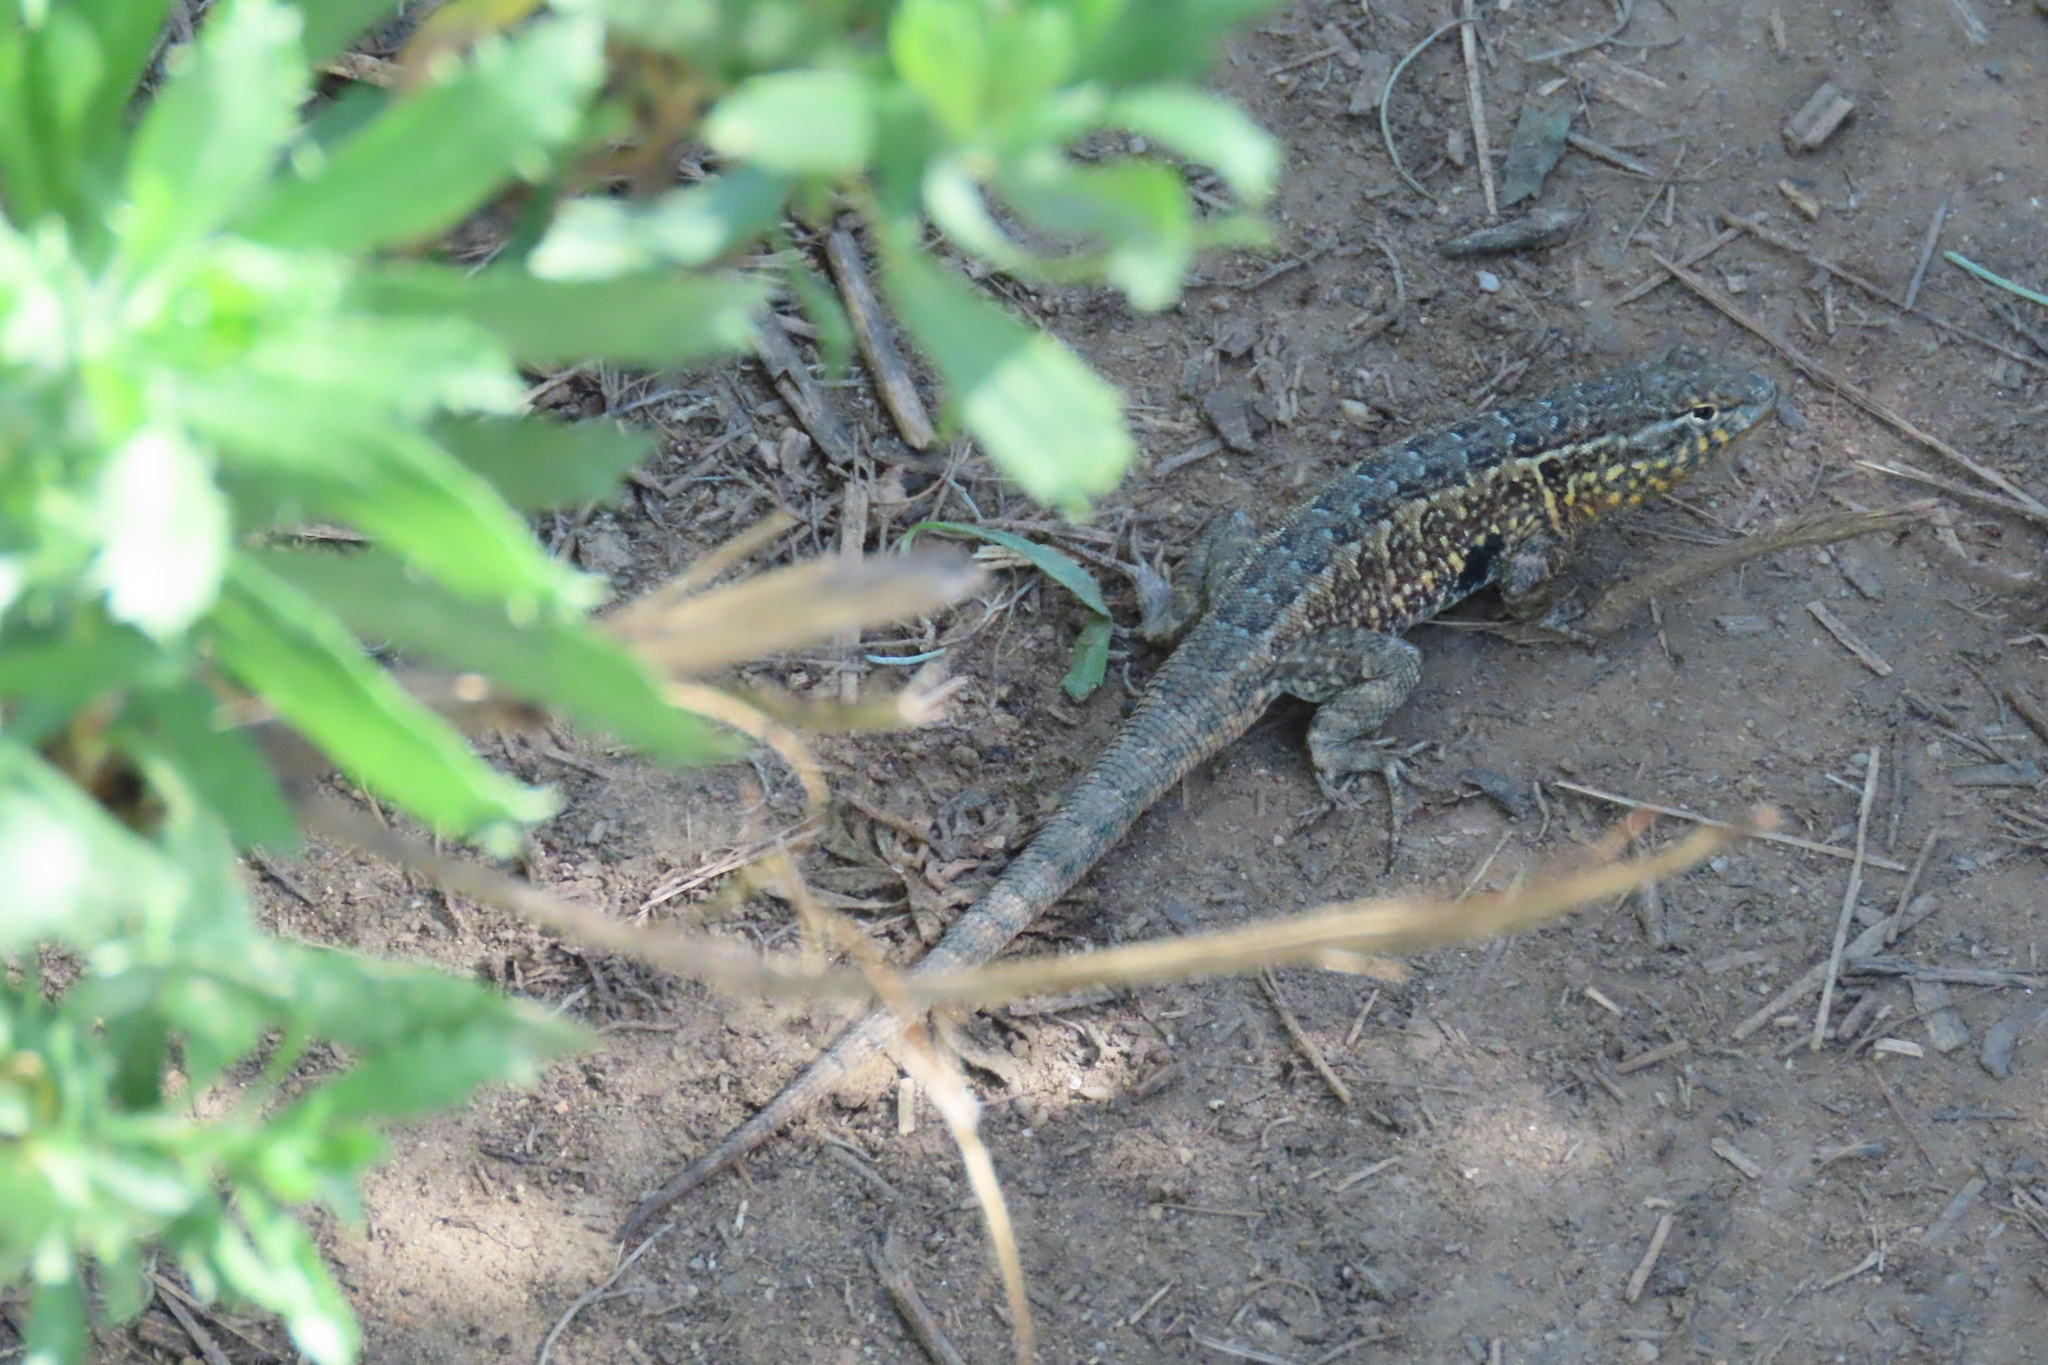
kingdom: Animalia
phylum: Chordata
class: Squamata
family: Phrynosomatidae
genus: Uta
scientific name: Uta stansburiana
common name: Side-blotched lizard
